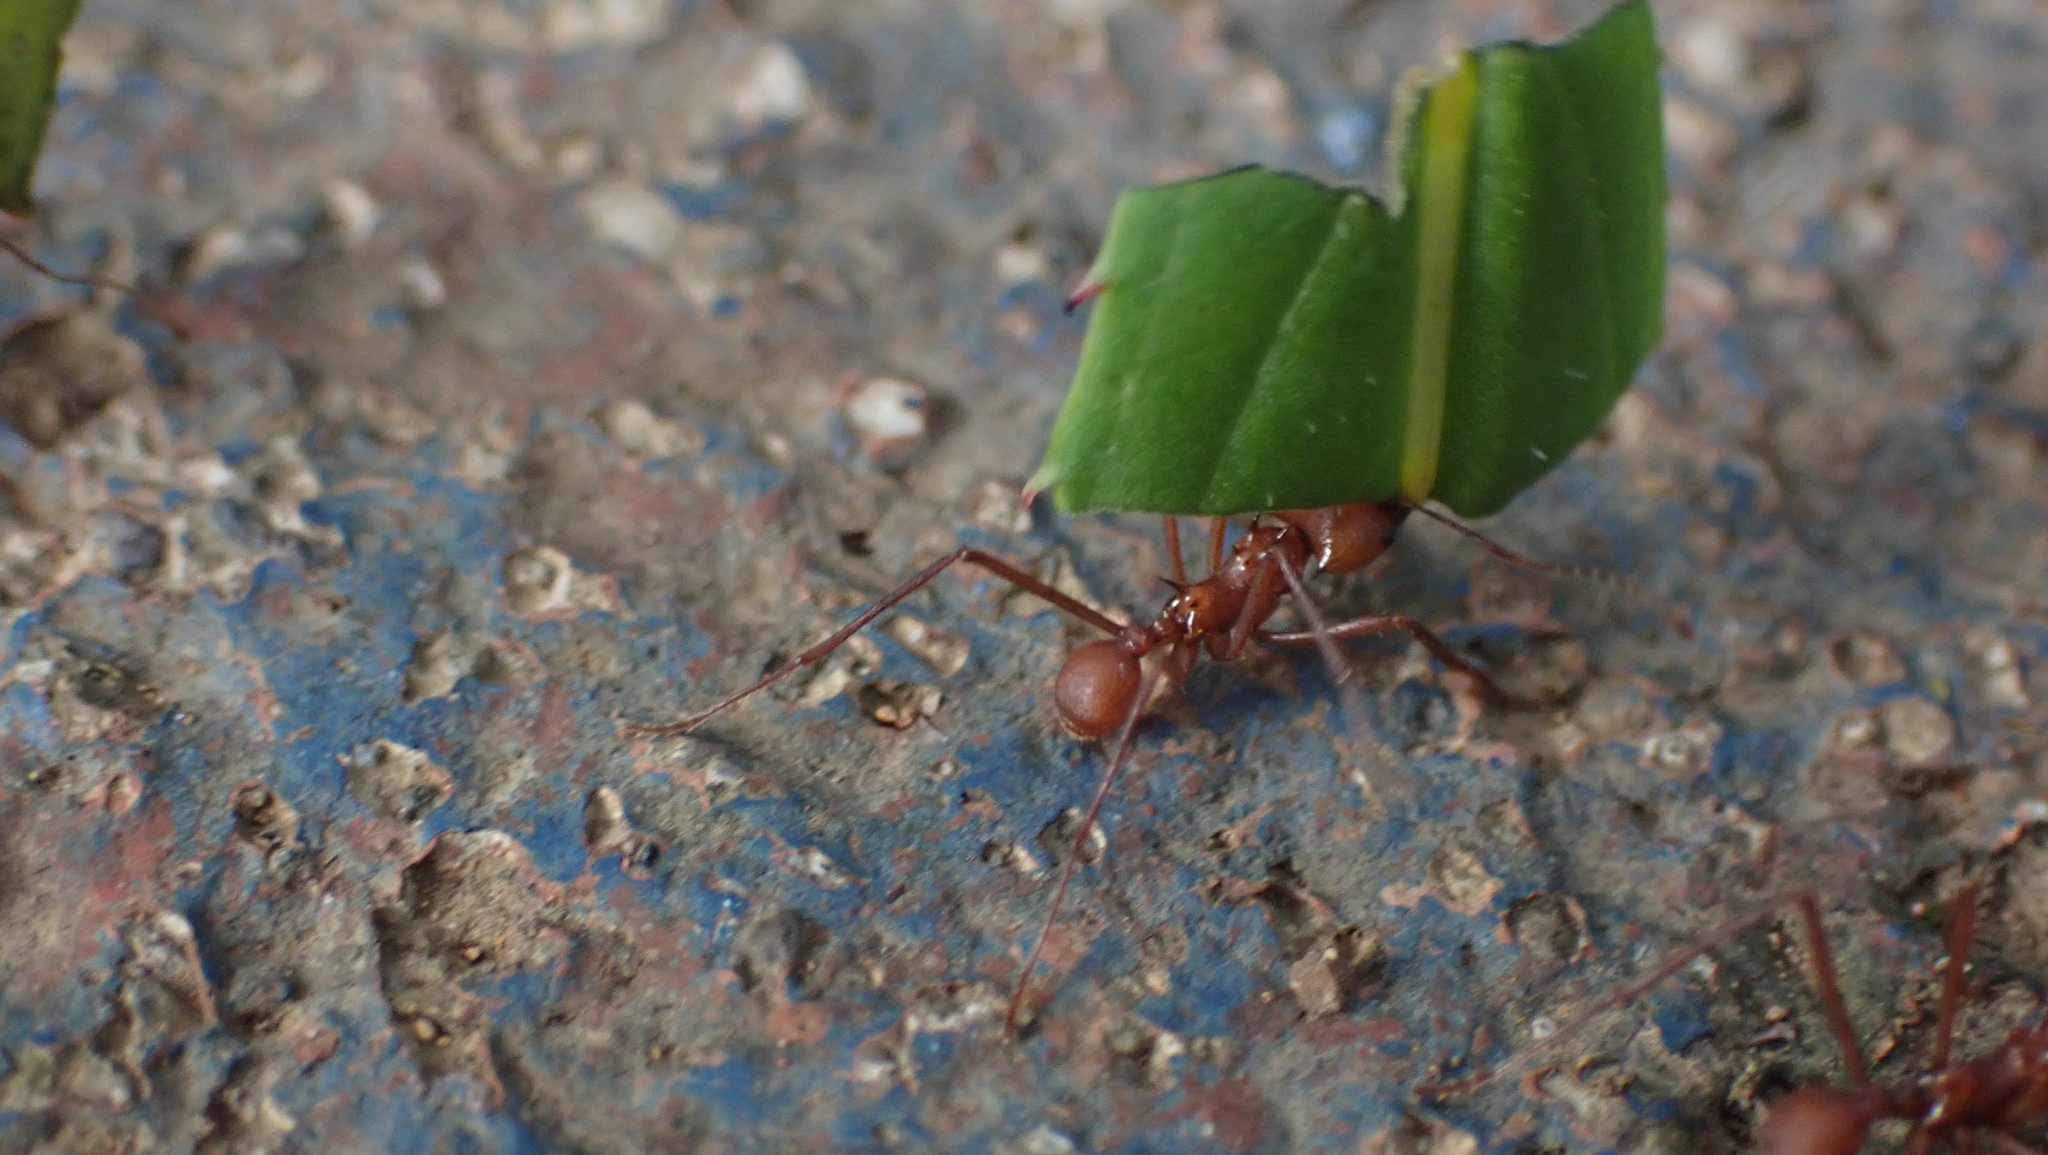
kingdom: Animalia
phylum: Arthropoda
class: Insecta
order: Hymenoptera
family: Formicidae
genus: Atta
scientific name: Atta cephalotes
